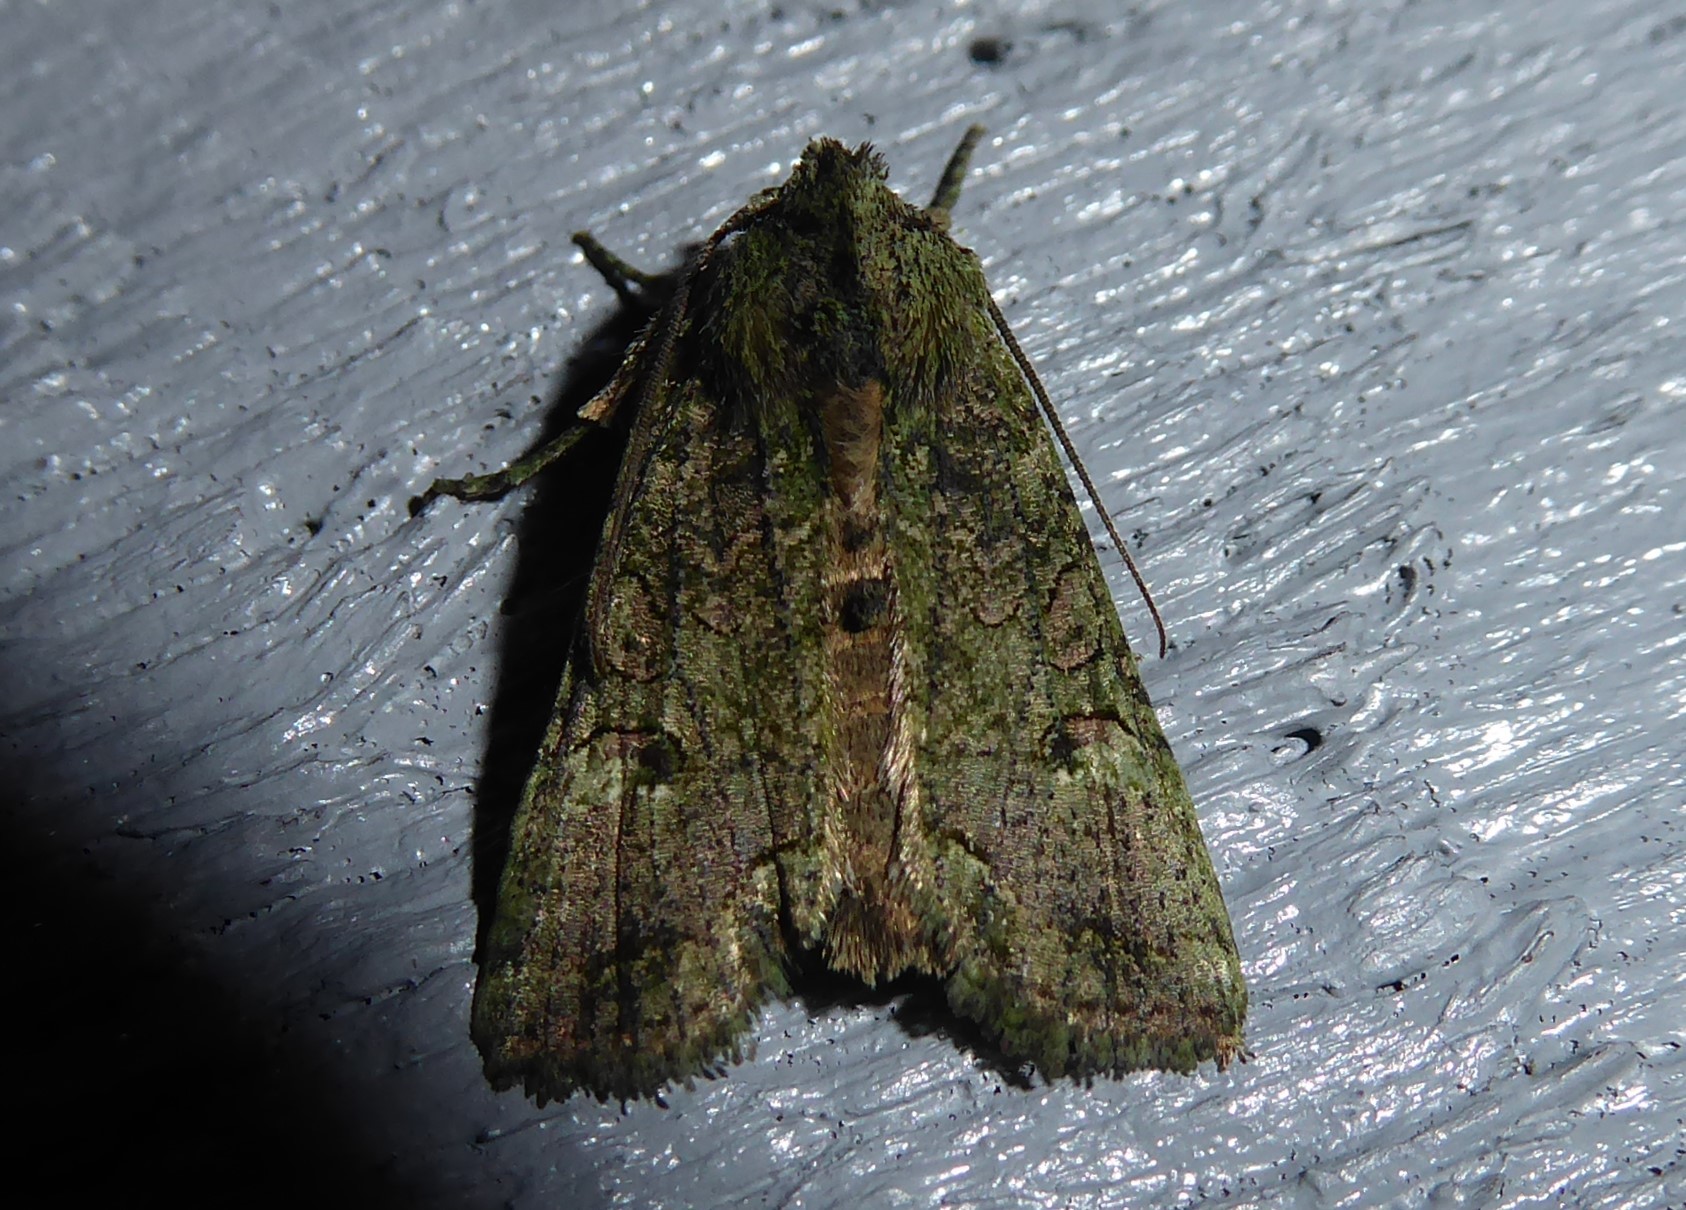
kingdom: Animalia
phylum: Arthropoda
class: Insecta
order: Lepidoptera
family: Noctuidae
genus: Meterana
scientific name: Meterana levis
